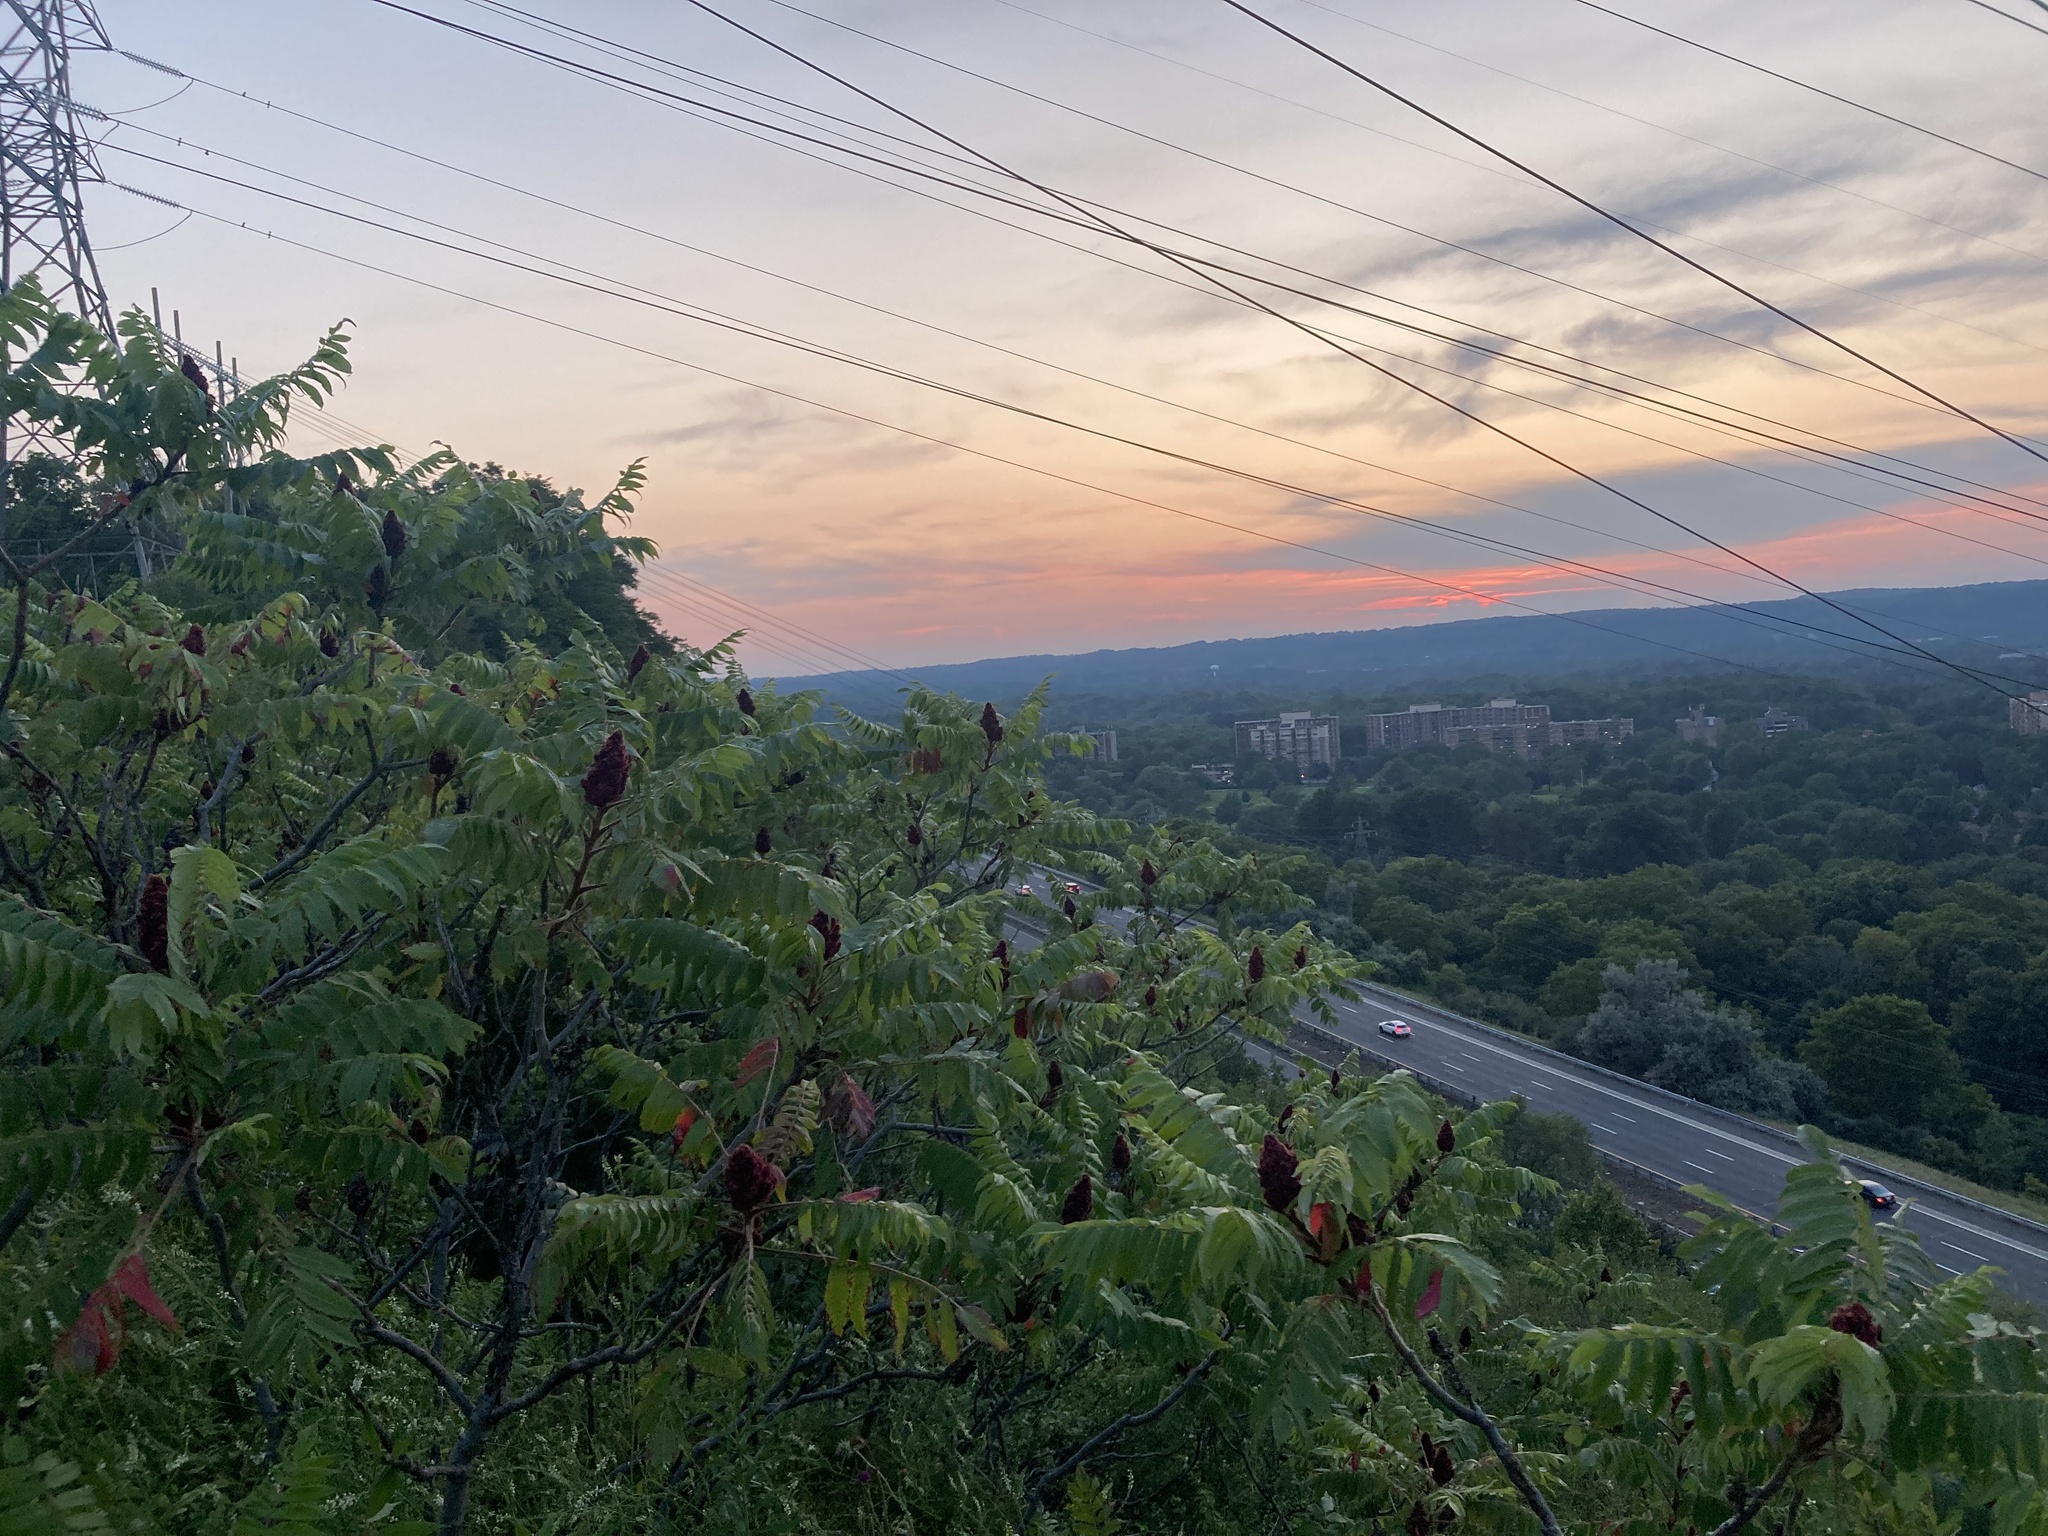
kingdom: Plantae
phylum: Tracheophyta
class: Magnoliopsida
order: Sapindales
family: Anacardiaceae
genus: Rhus
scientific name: Rhus typhina
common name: Staghorn sumac
